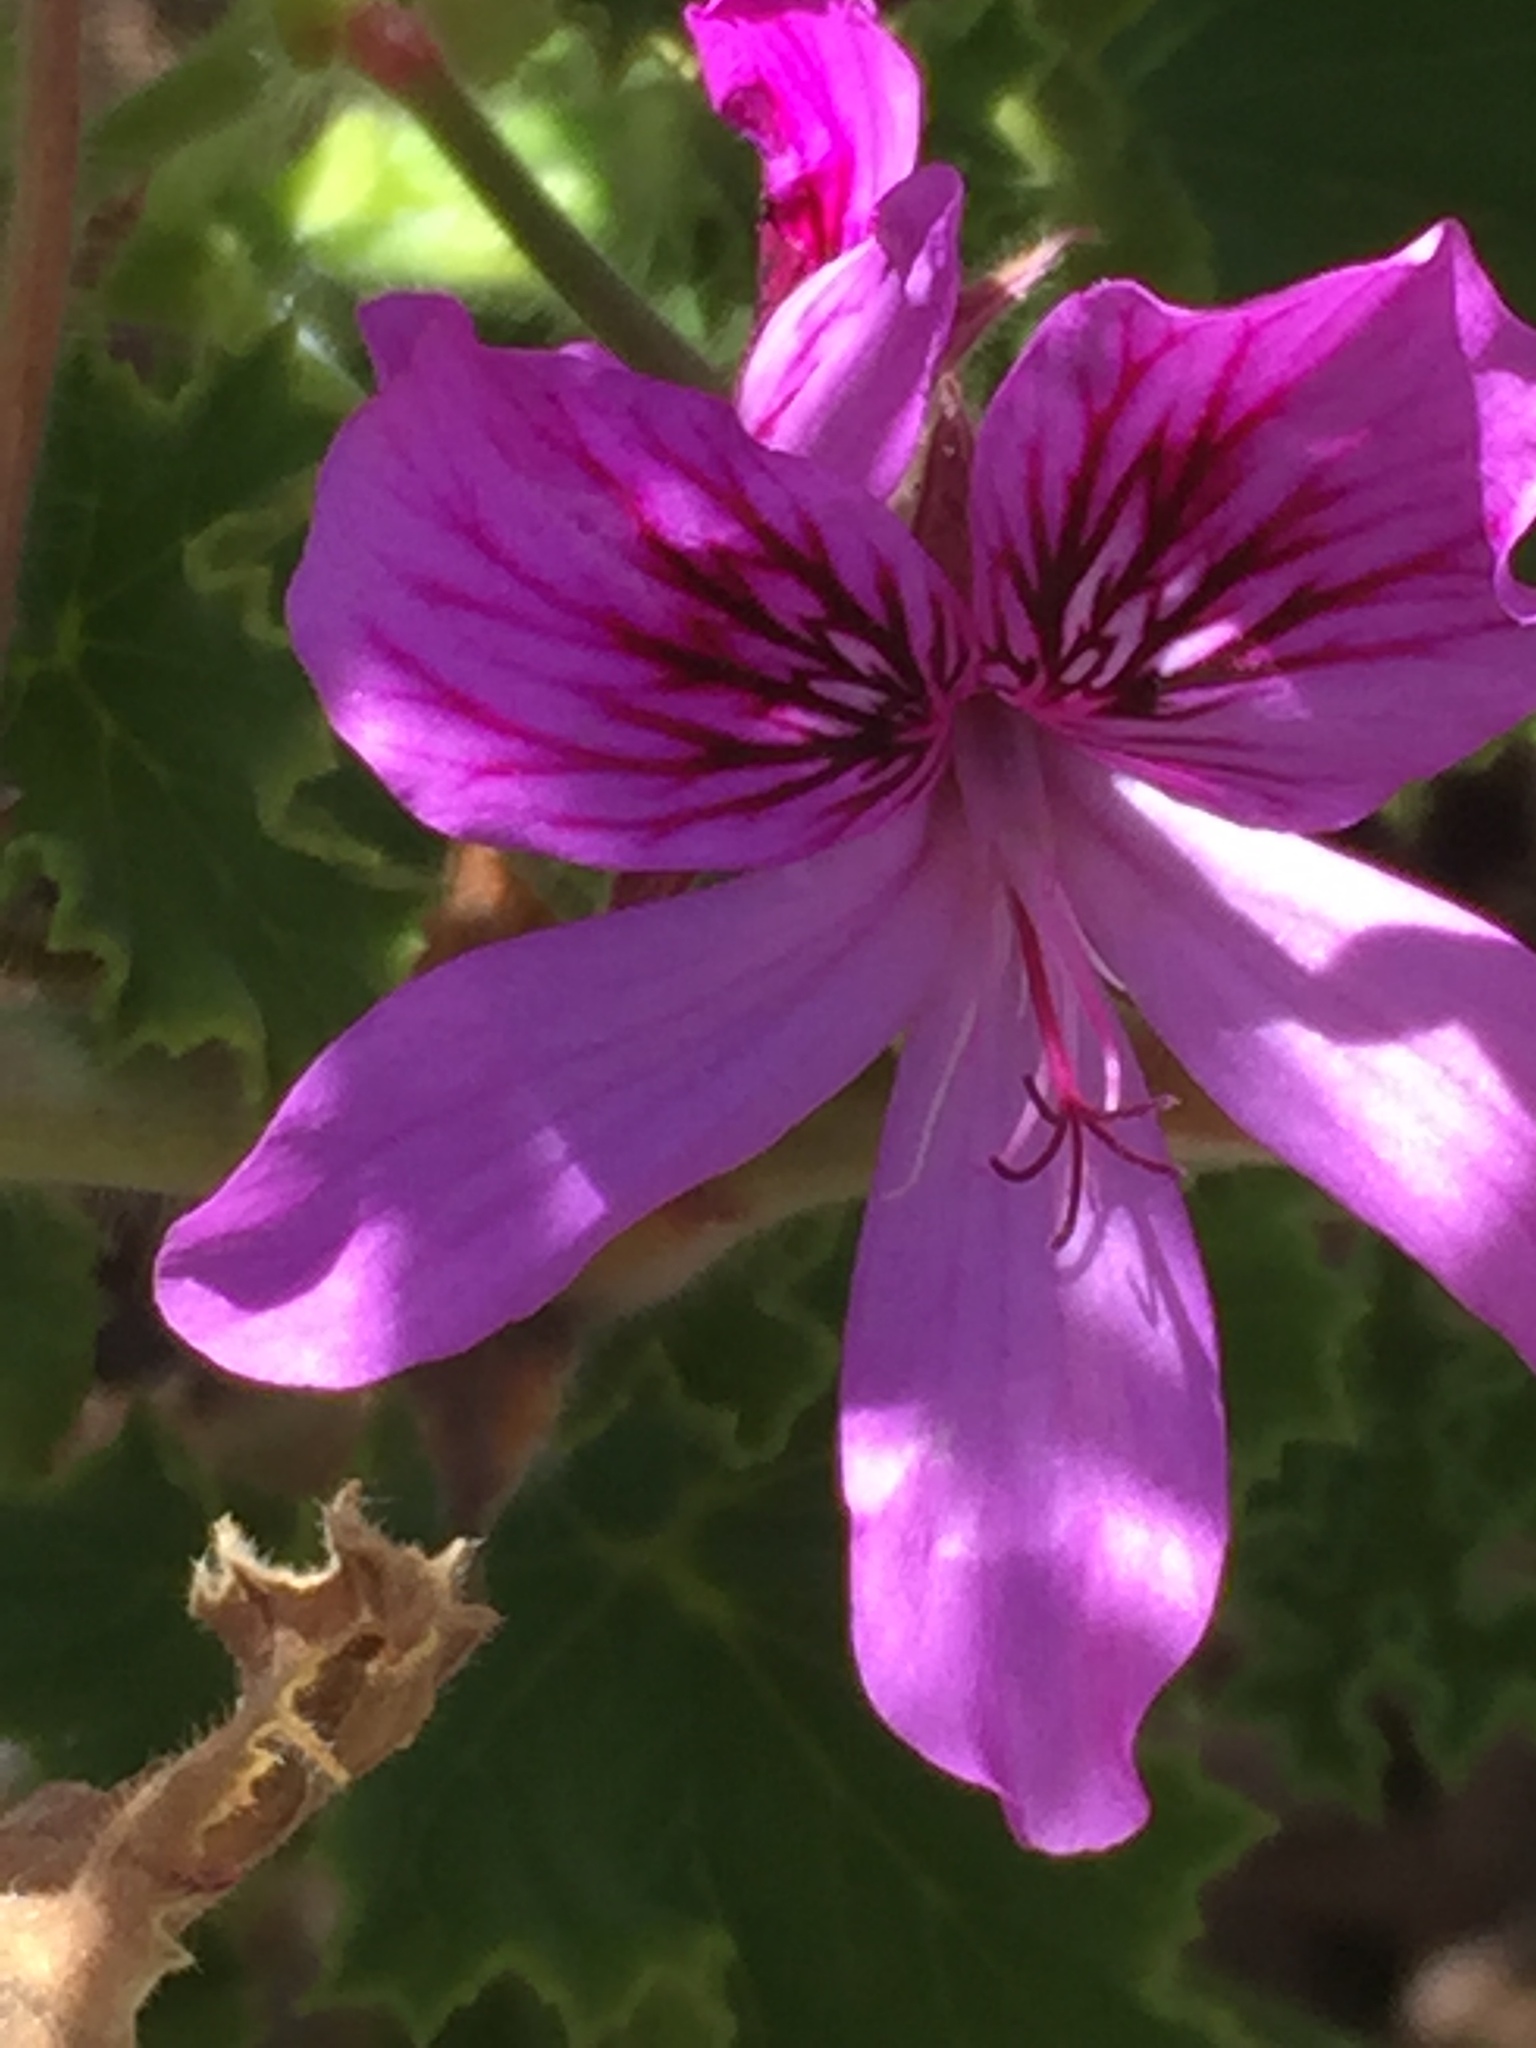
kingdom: Plantae
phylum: Tracheophyta
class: Magnoliopsida
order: Geraniales
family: Geraniaceae
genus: Pelargonium
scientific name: Pelargonium cucullatum
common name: Tree pelargonium
